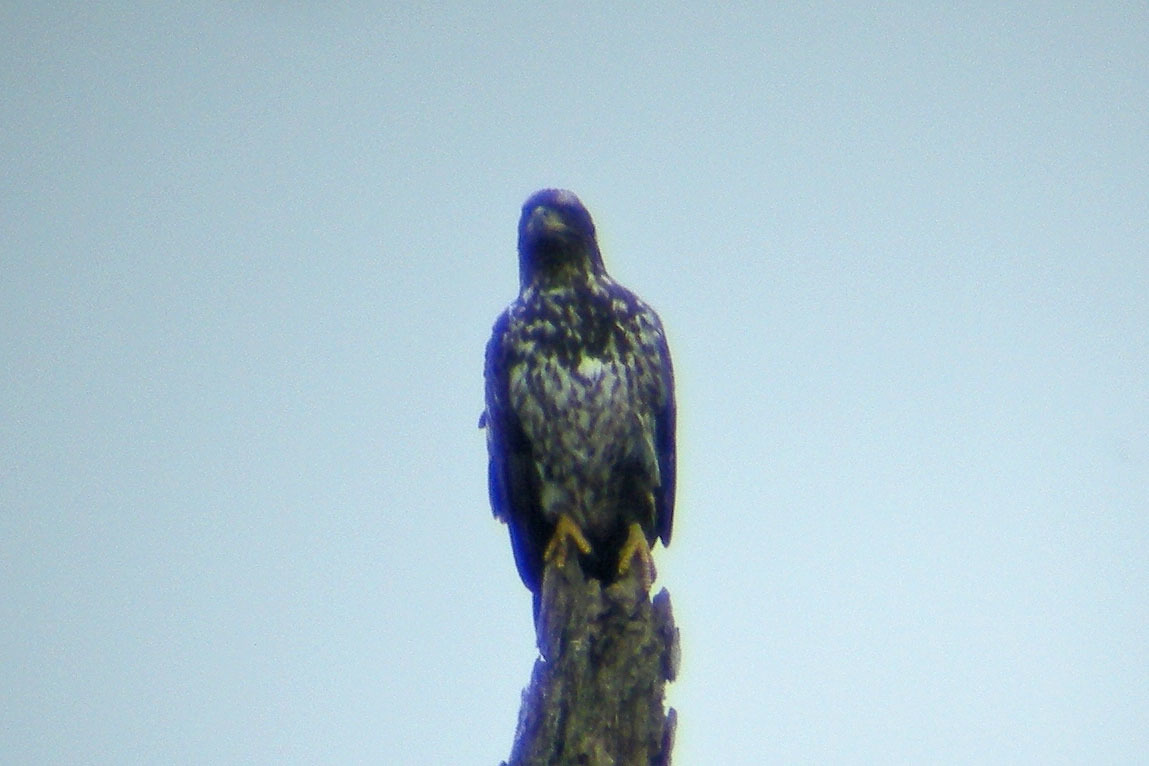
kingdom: Animalia
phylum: Chordata
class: Aves
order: Accipitriformes
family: Accipitridae
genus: Haliaeetus
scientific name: Haliaeetus leucocephalus
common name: Bald eagle
